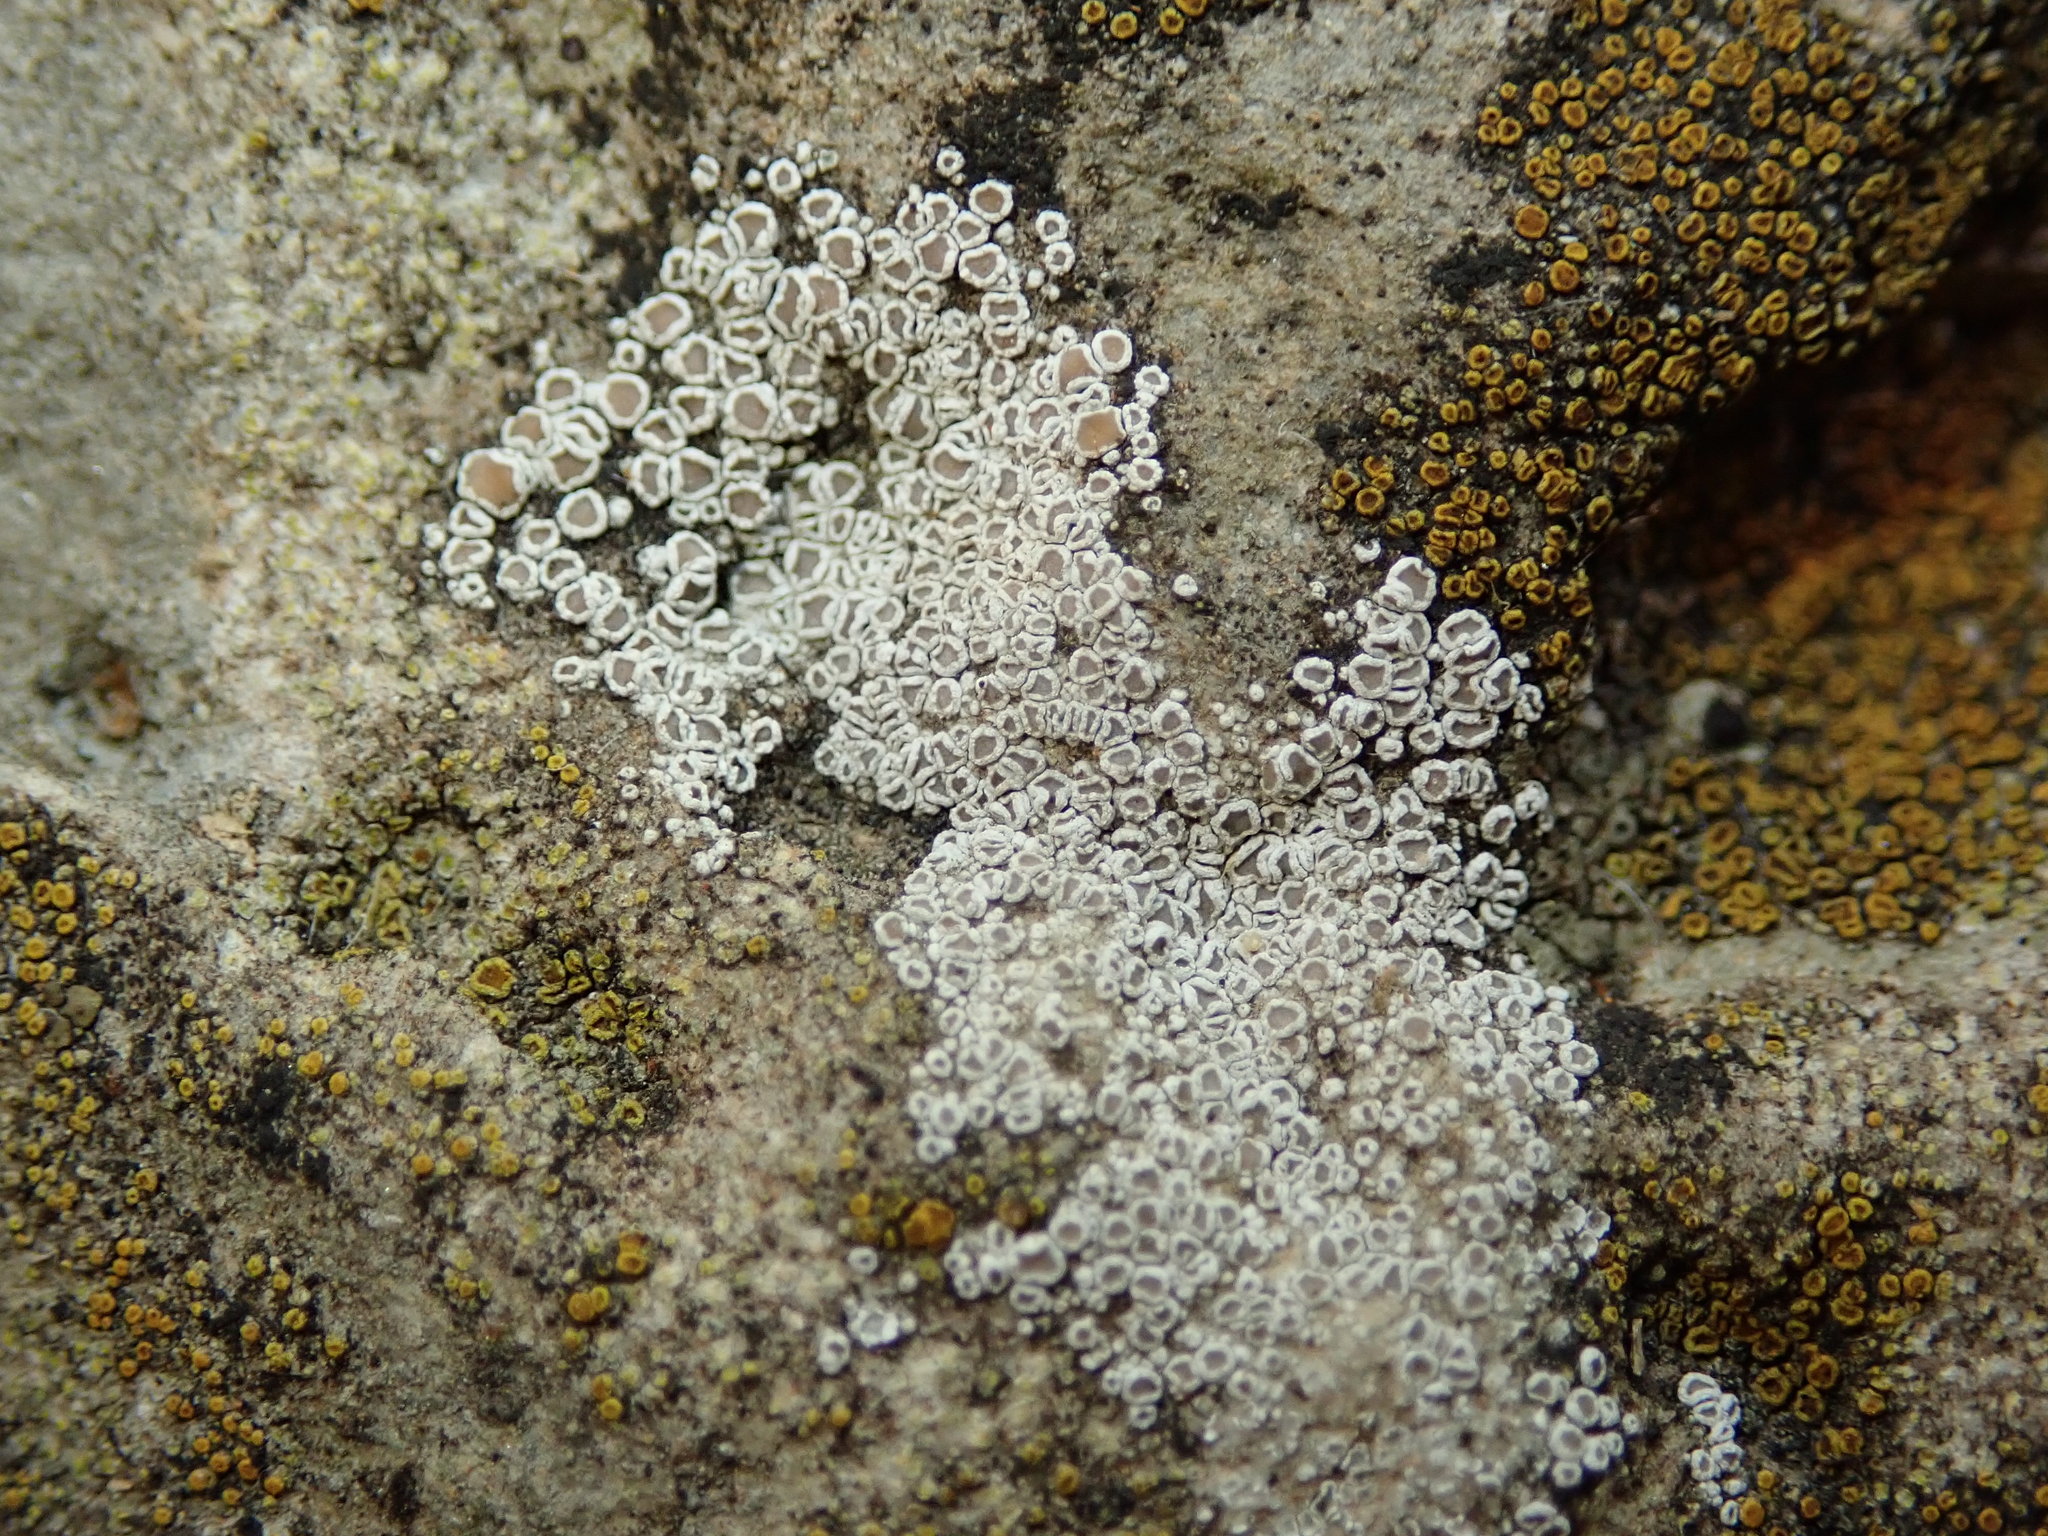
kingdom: Fungi
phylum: Ascomycota
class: Lecanoromycetes
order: Lecanorales
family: Lecanoraceae
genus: Polyozosia
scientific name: Polyozosia dispersa
